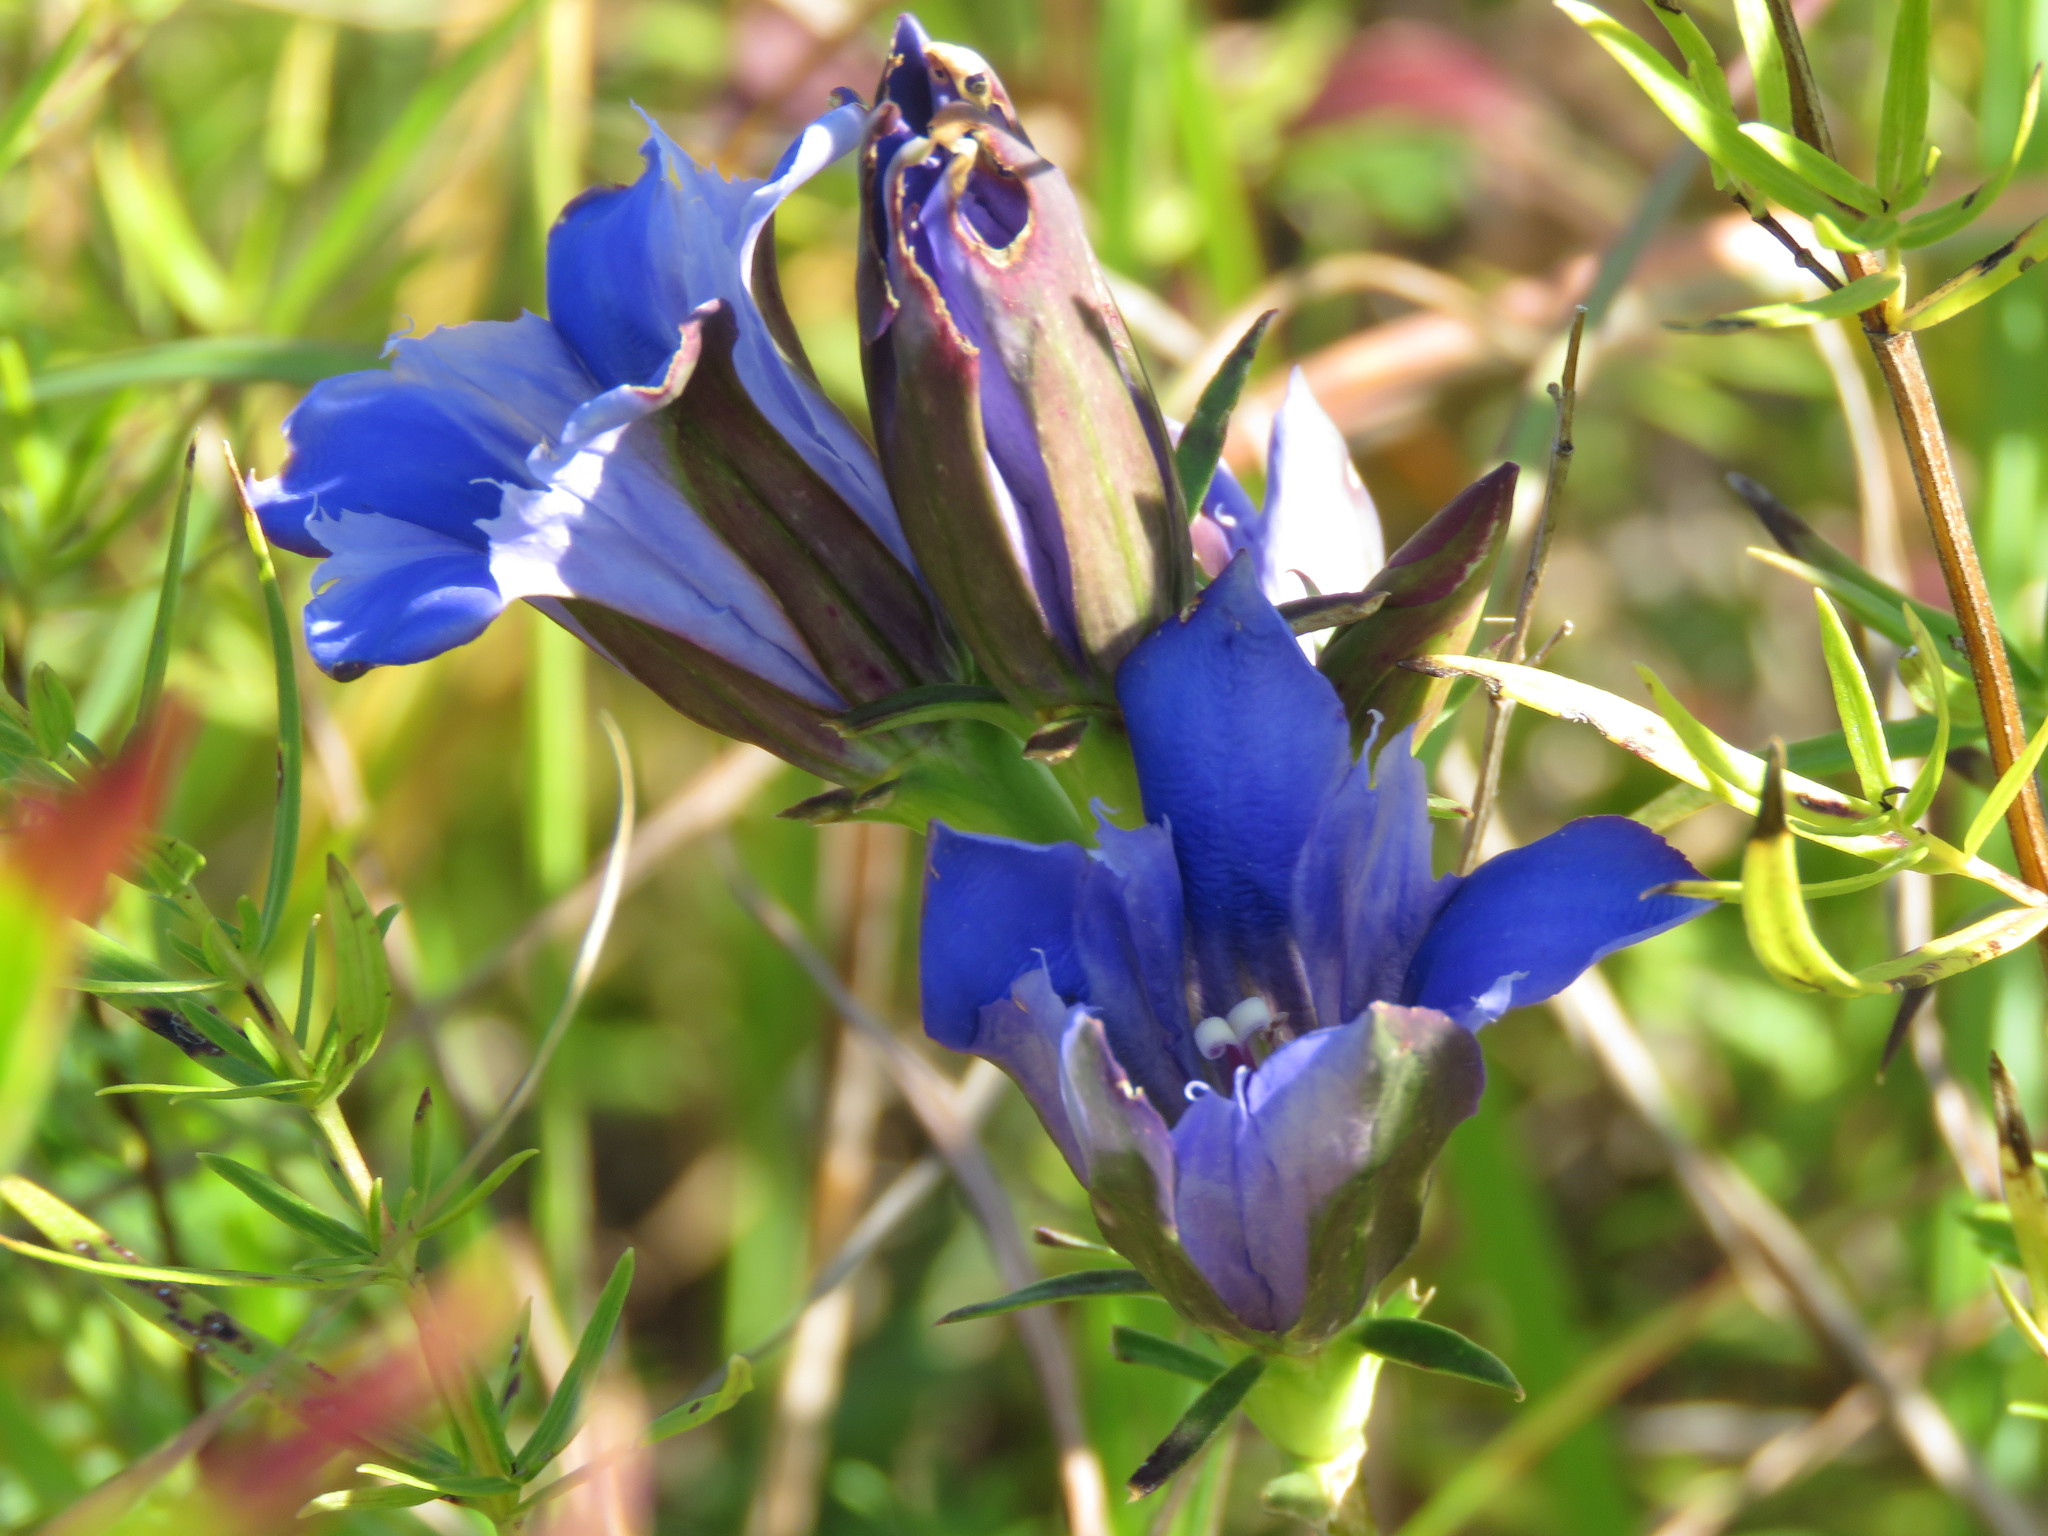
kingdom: Plantae
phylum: Tracheophyta
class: Magnoliopsida
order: Gentianales
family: Gentianaceae
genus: Gentiana
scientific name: Gentiana puberulenta
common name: Downy gentian
